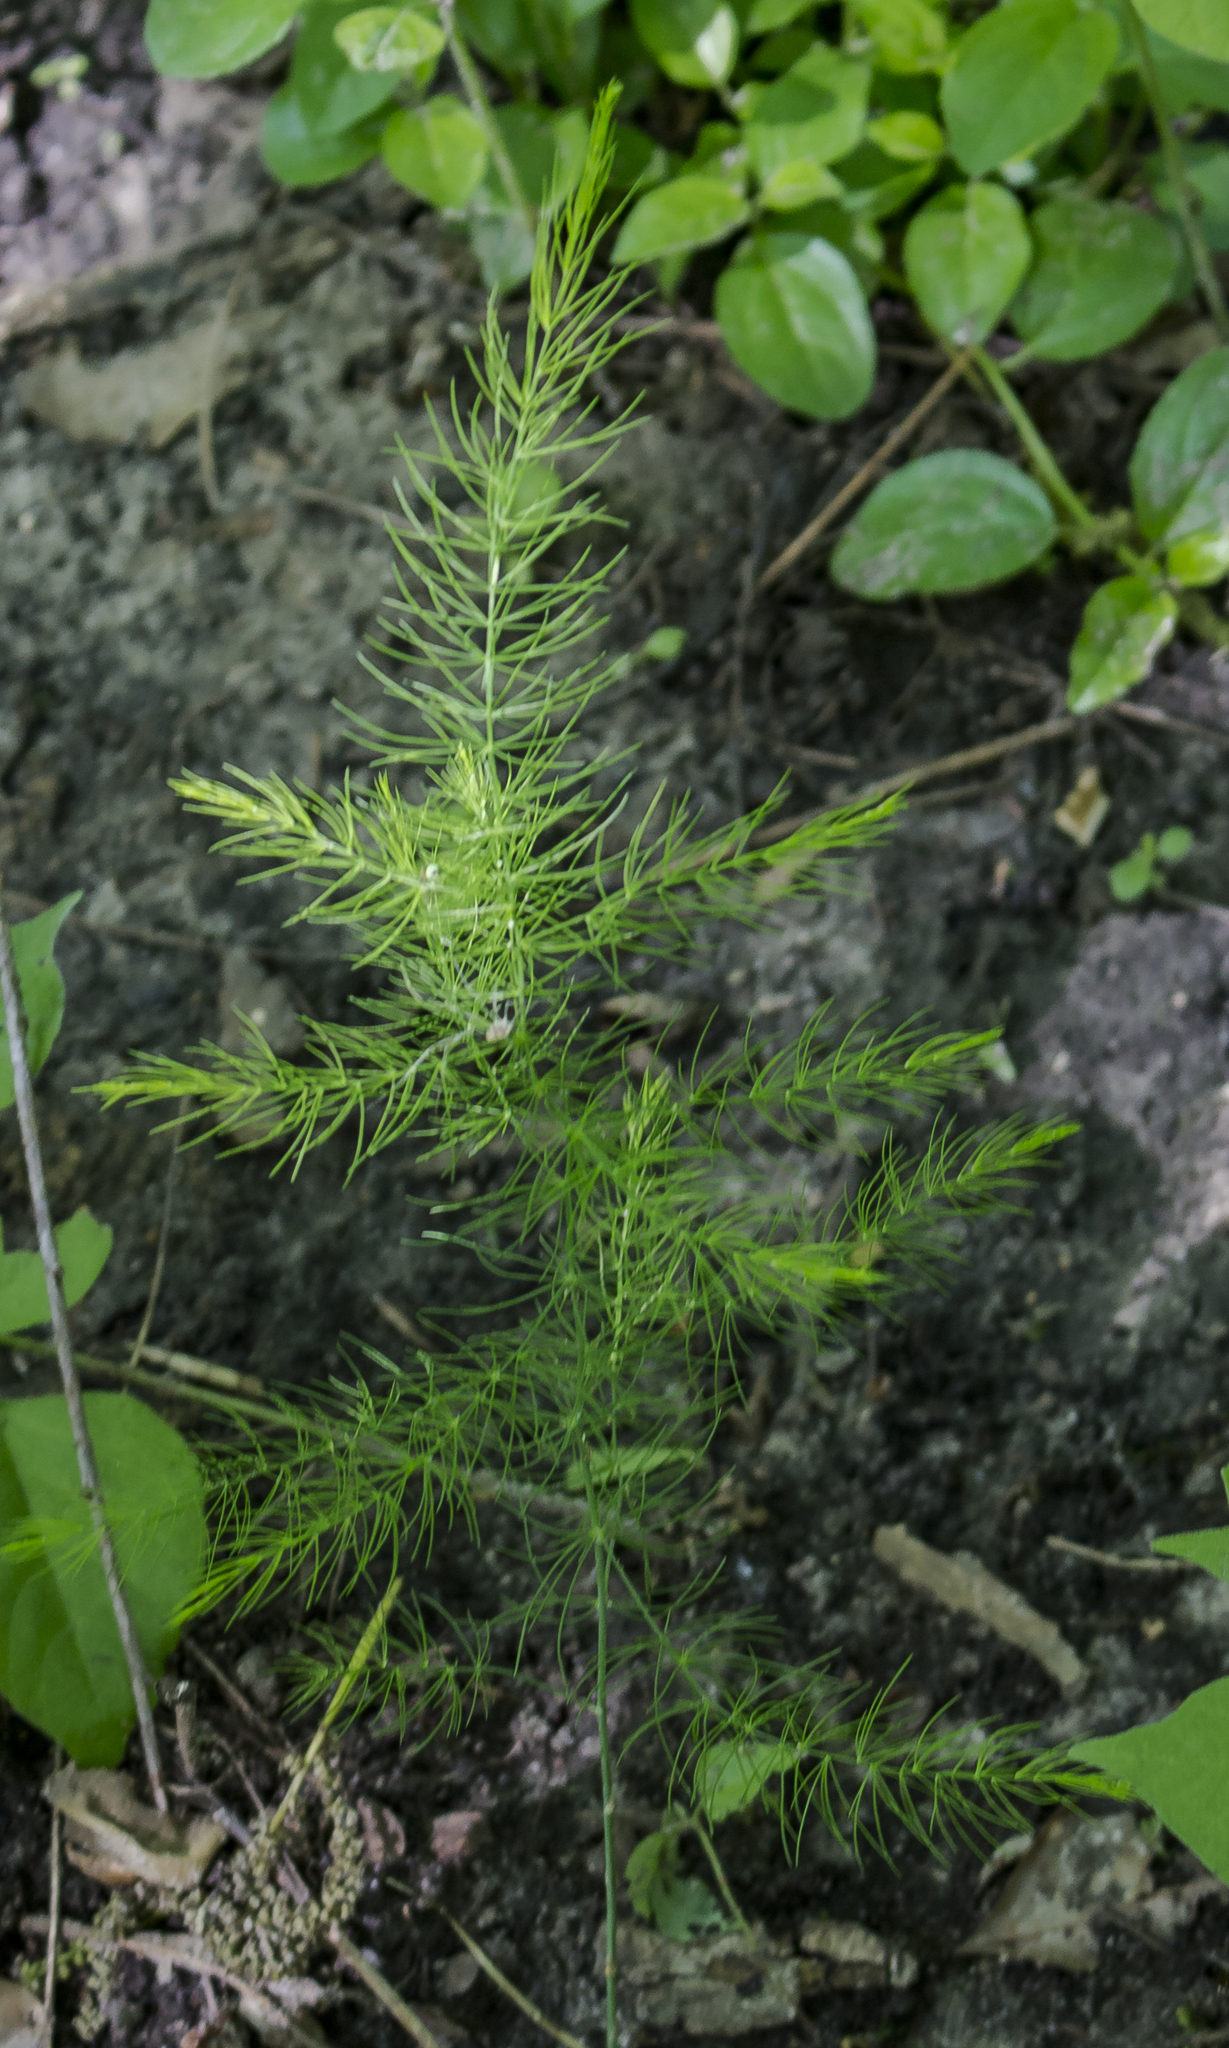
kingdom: Plantae
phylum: Tracheophyta
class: Liliopsida
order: Asparagales
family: Asparagaceae
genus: Asparagus
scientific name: Asparagus officinalis
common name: Garden asparagus
